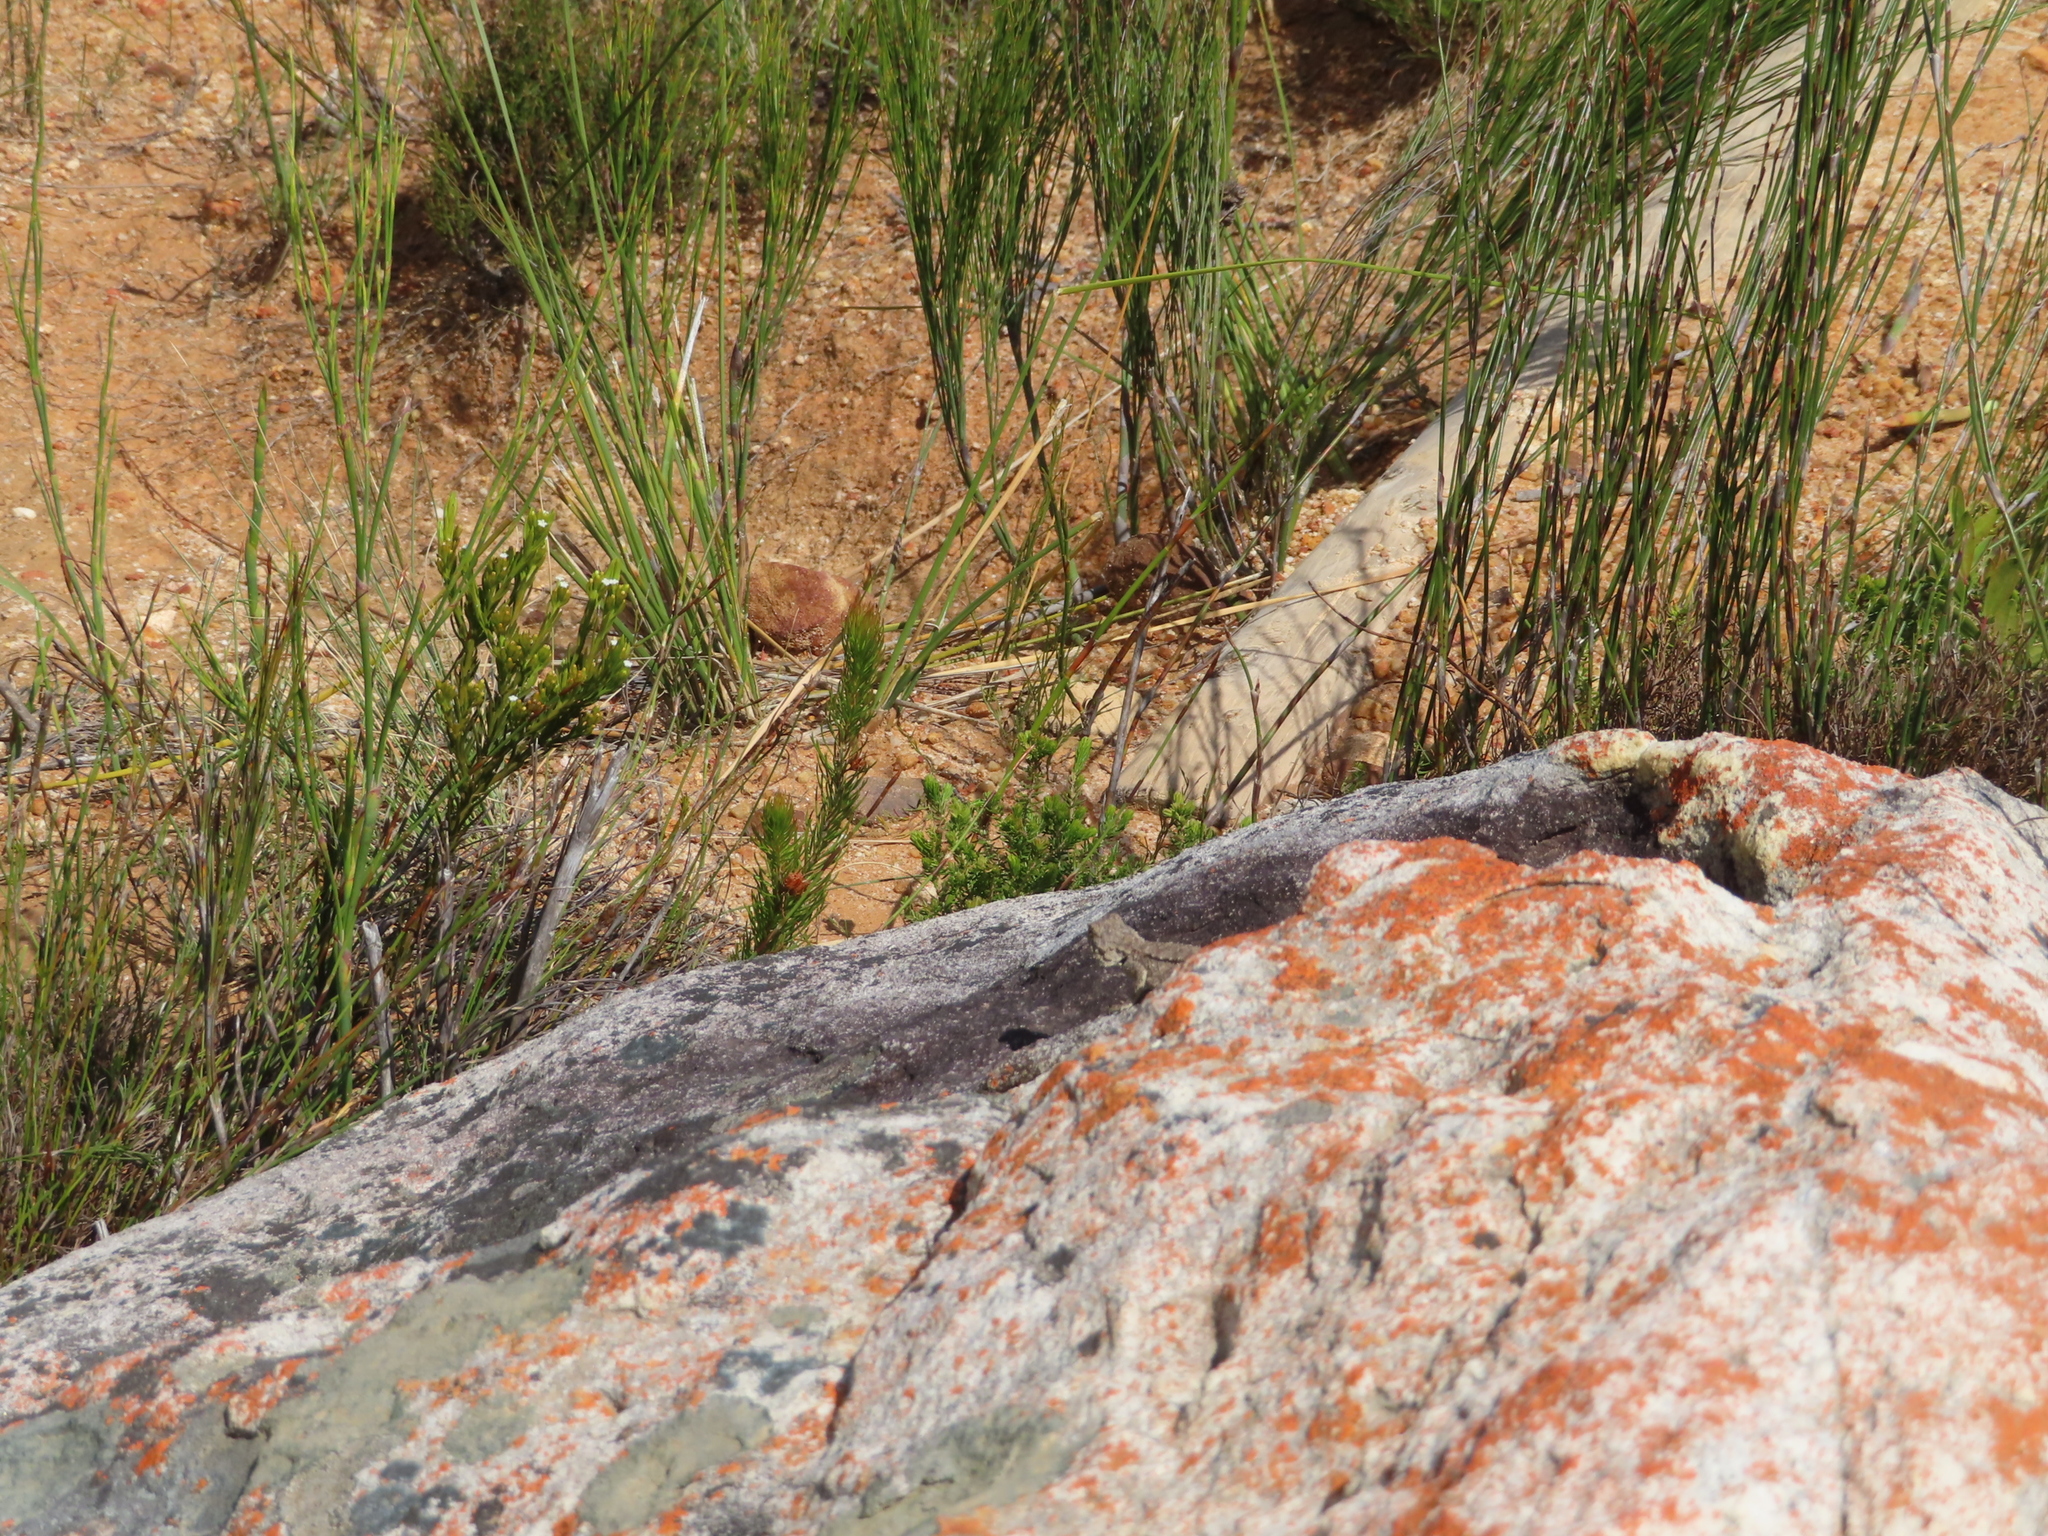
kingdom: Animalia
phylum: Chordata
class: Squamata
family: Agamidae
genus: Agama
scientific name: Agama atra
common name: Southern african rock agama
